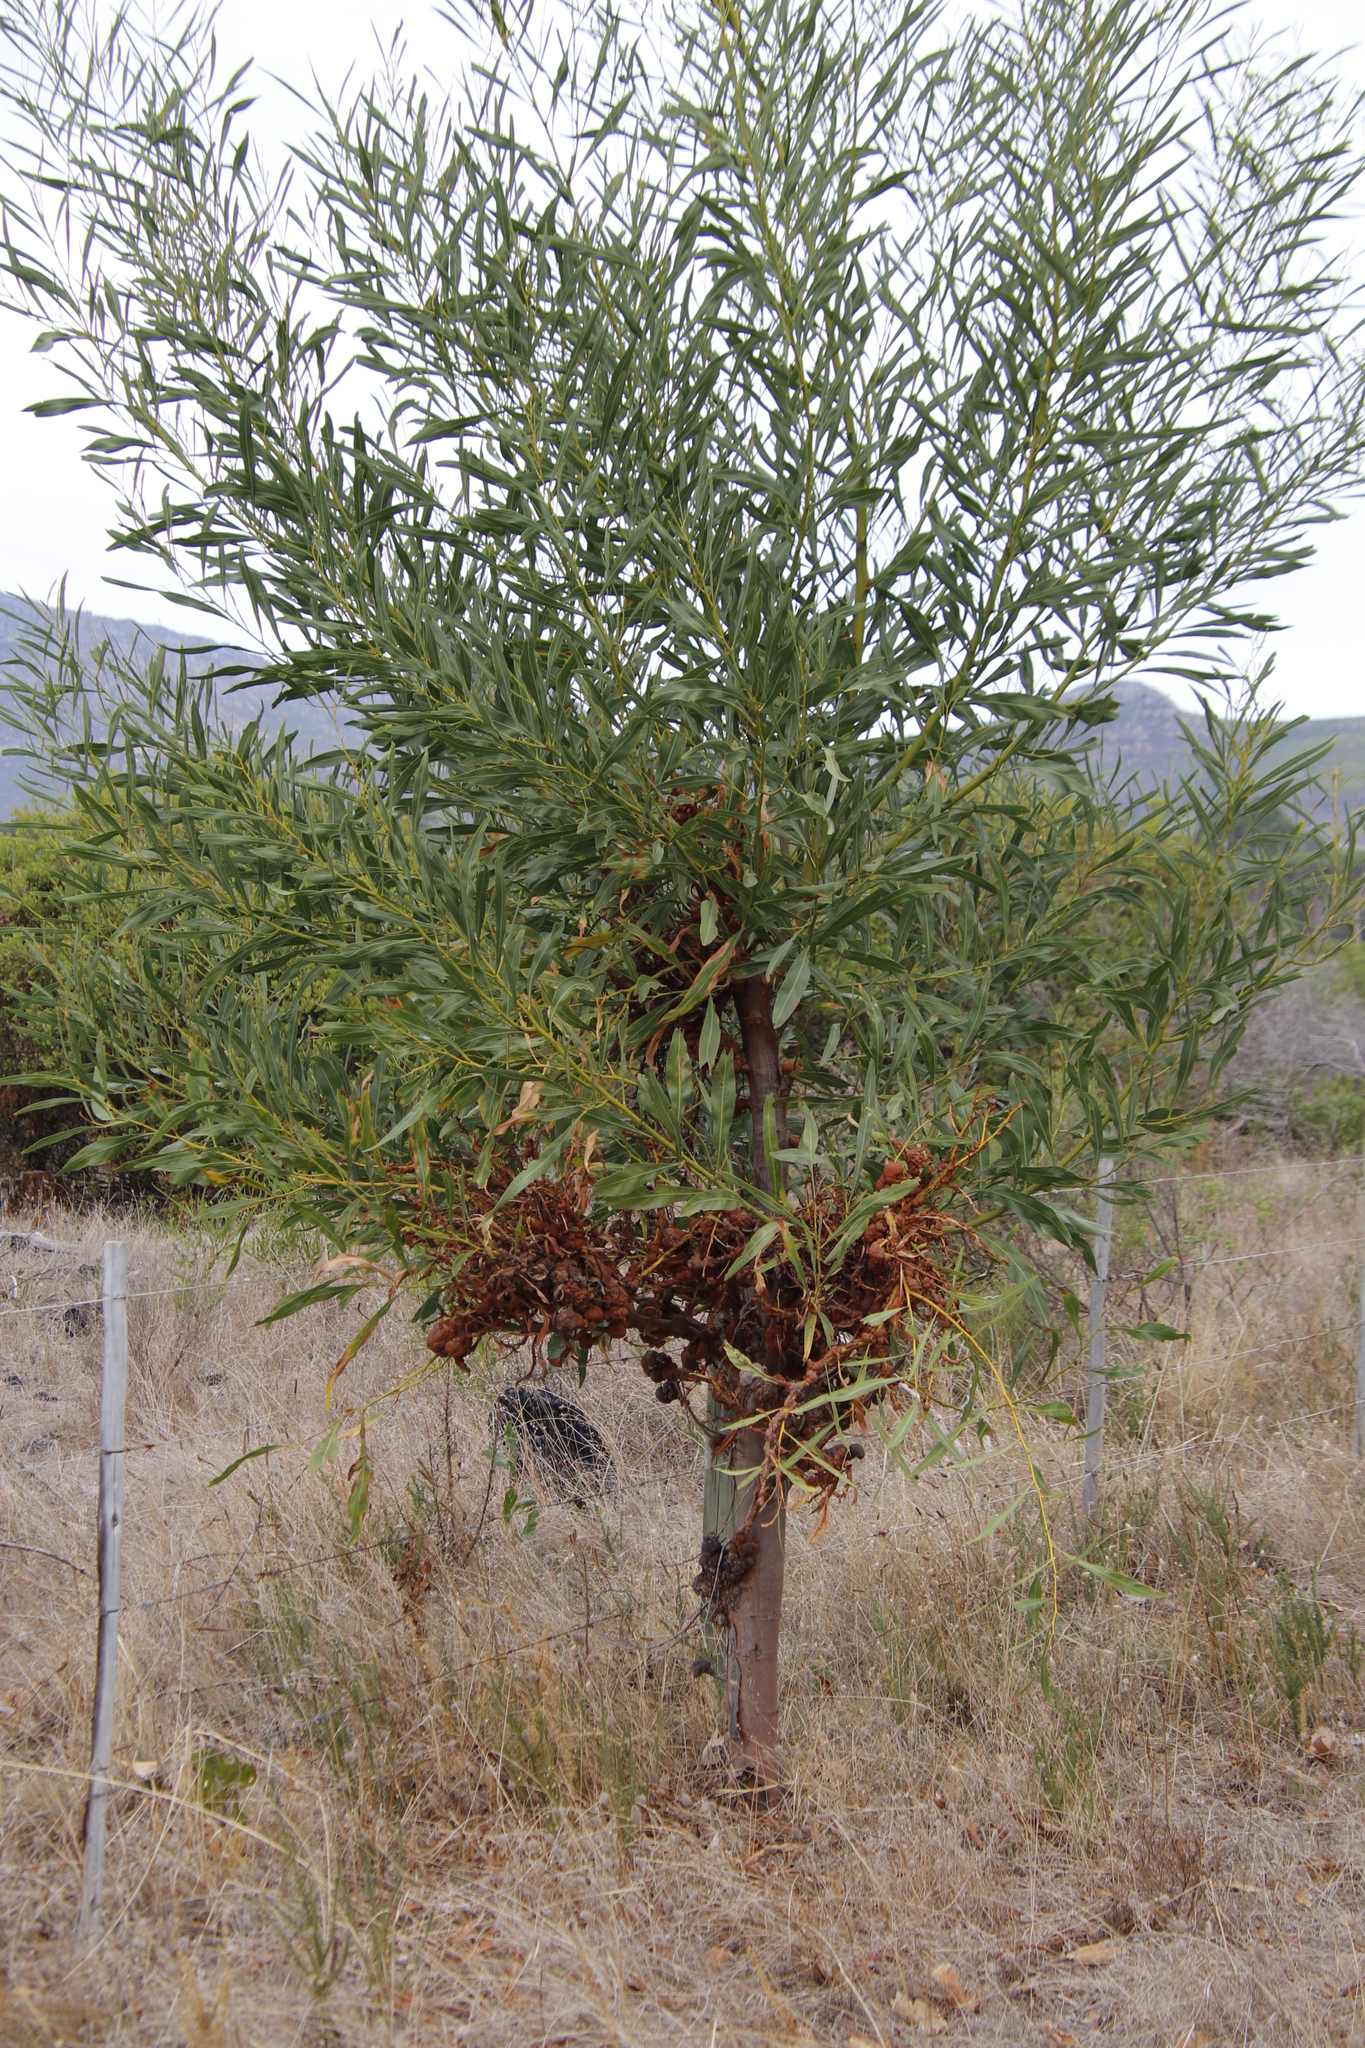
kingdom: Fungi
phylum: Basidiomycota
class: Pucciniomycetes
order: Pucciniales
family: Uromycladiaceae
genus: Uromycladium
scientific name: Uromycladium morrisii
